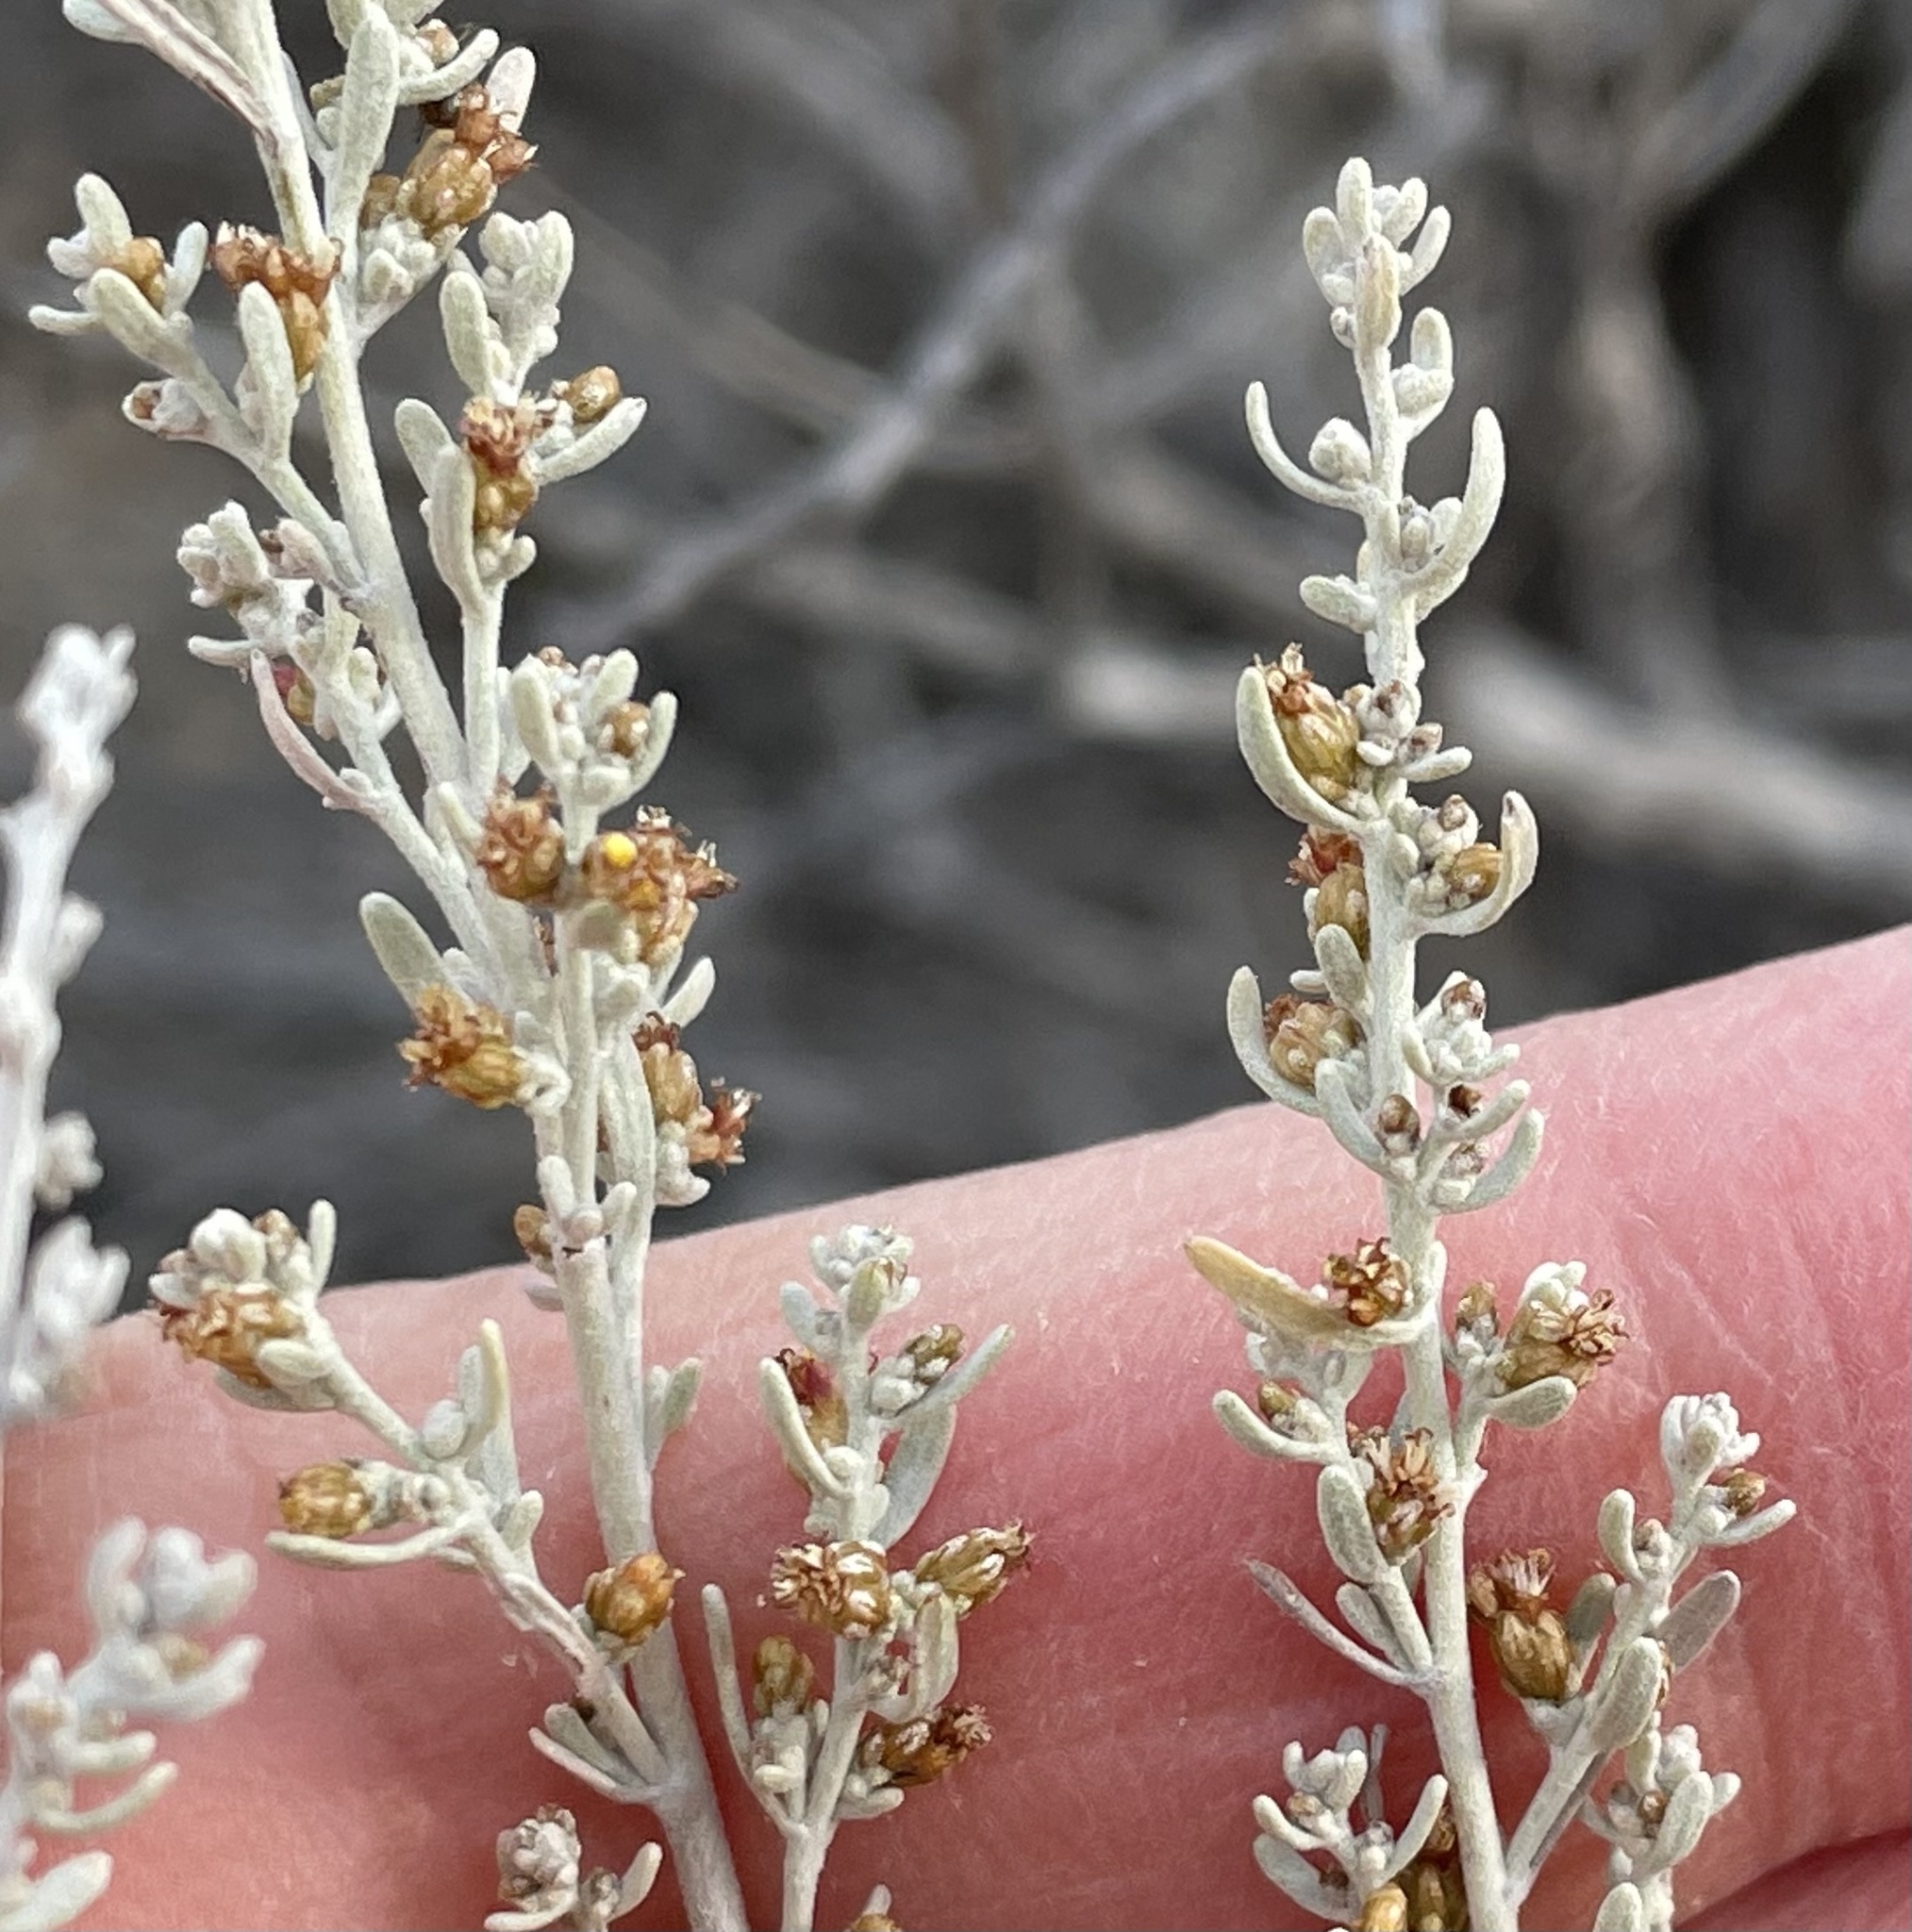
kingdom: Plantae
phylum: Tracheophyta
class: Magnoliopsida
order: Asterales
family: Asteraceae
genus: Artemisia
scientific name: Artemisia tridentata
